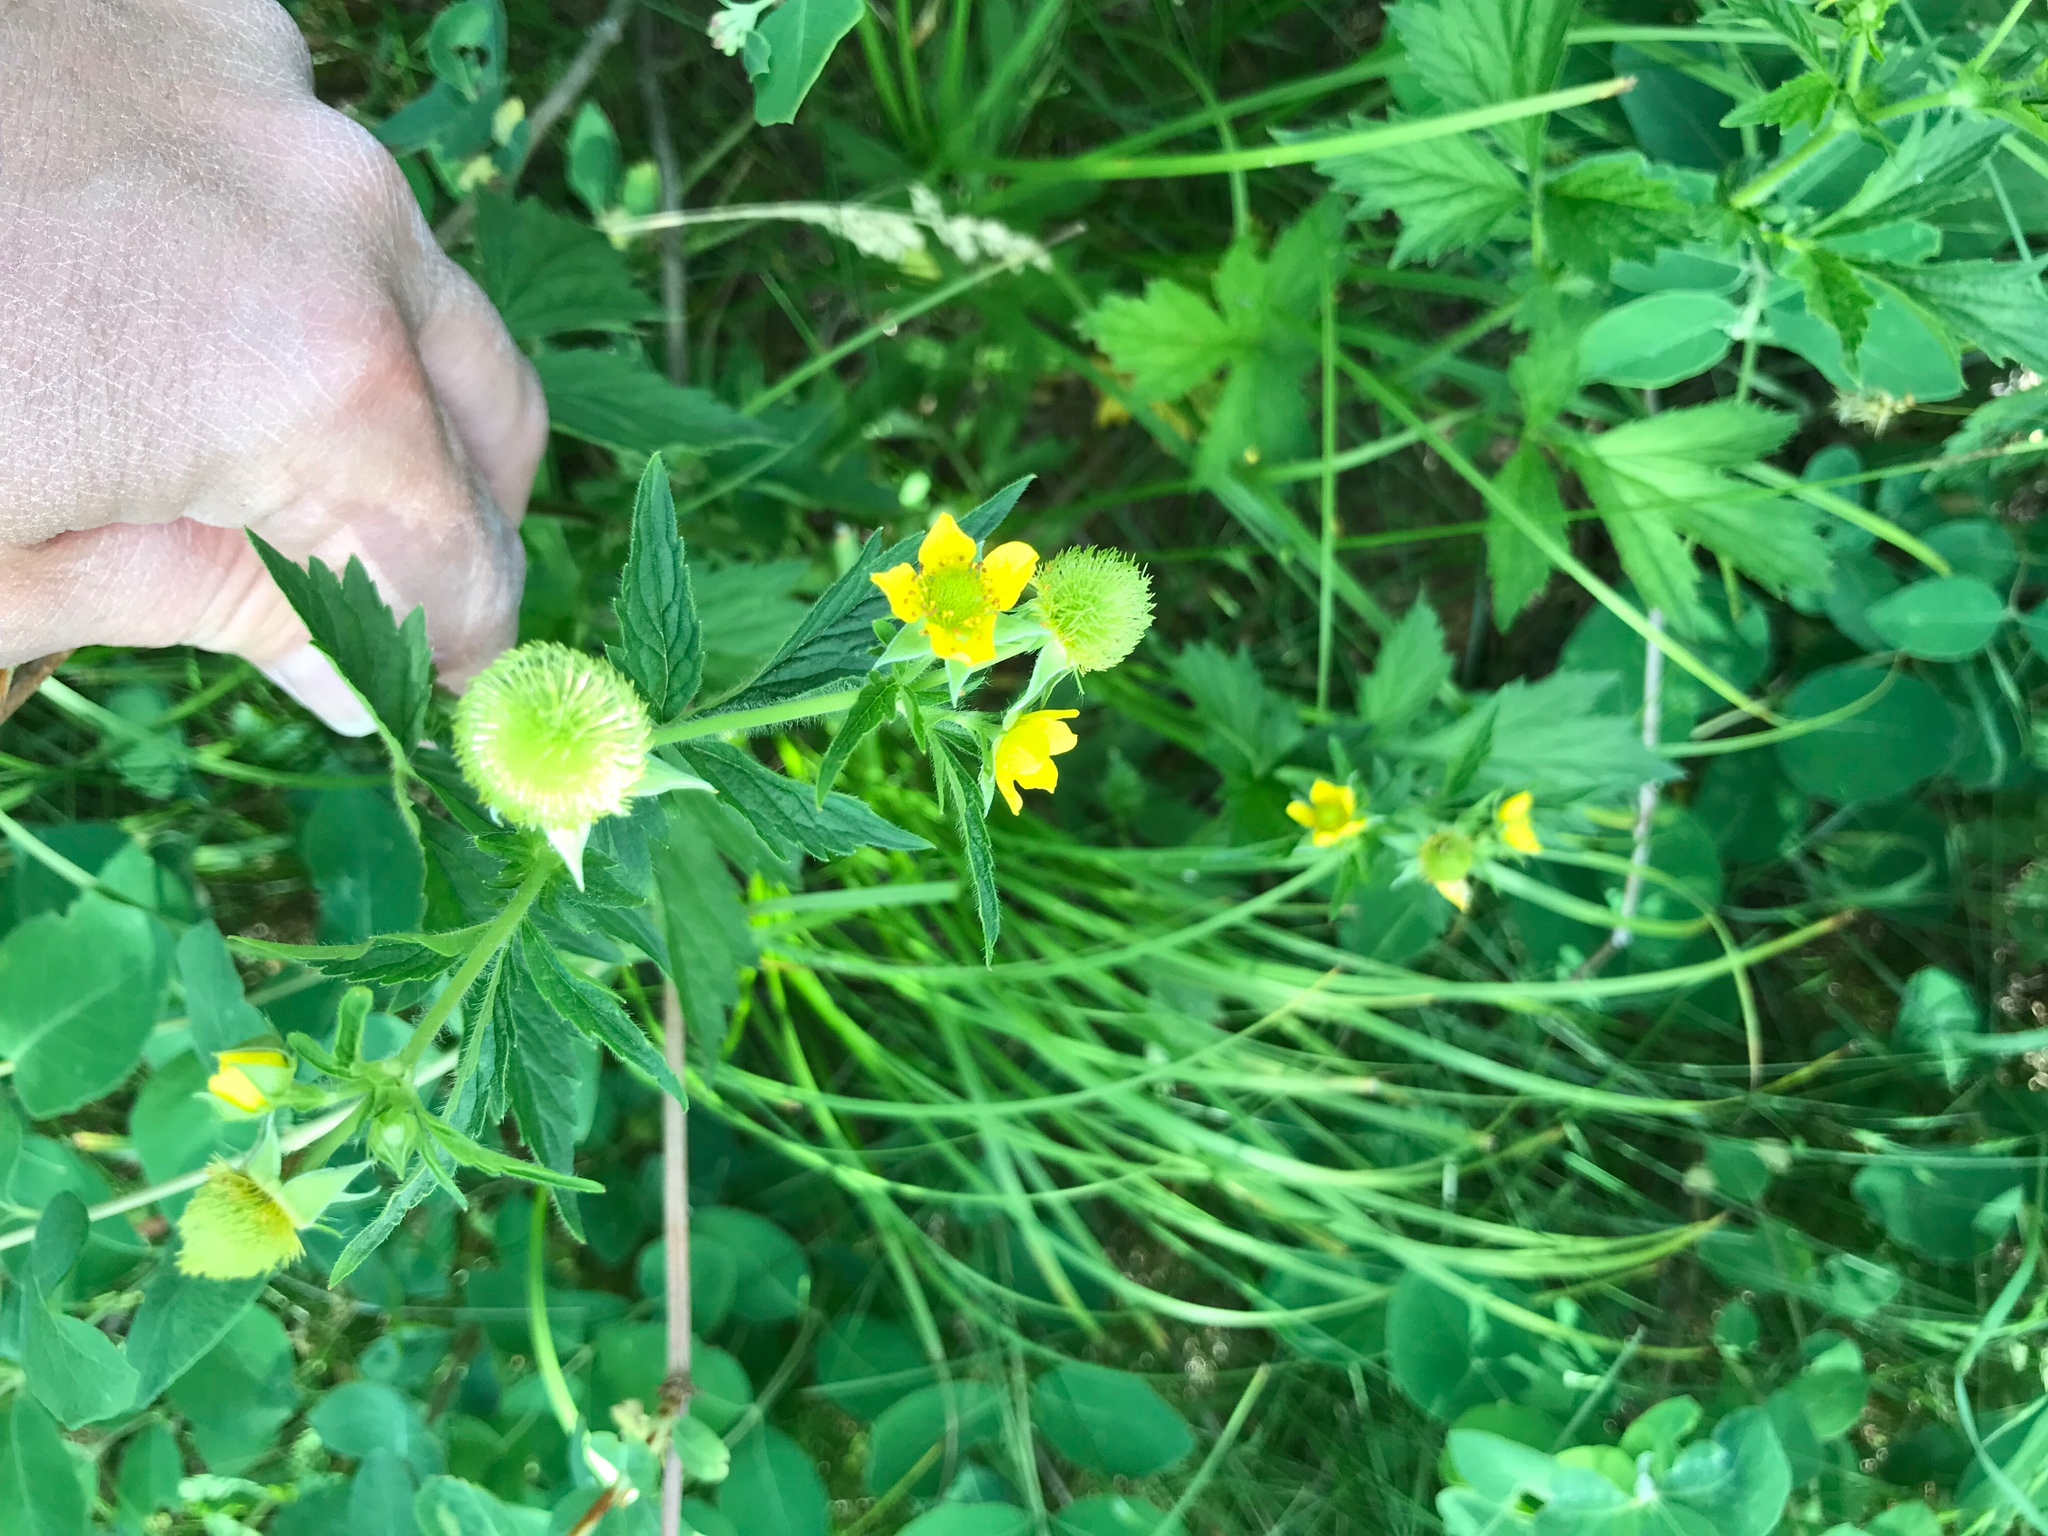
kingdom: Plantae
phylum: Tracheophyta
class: Magnoliopsida
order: Rosales
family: Rosaceae
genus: Geum
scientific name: Geum aleppicum
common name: Yellow avens
